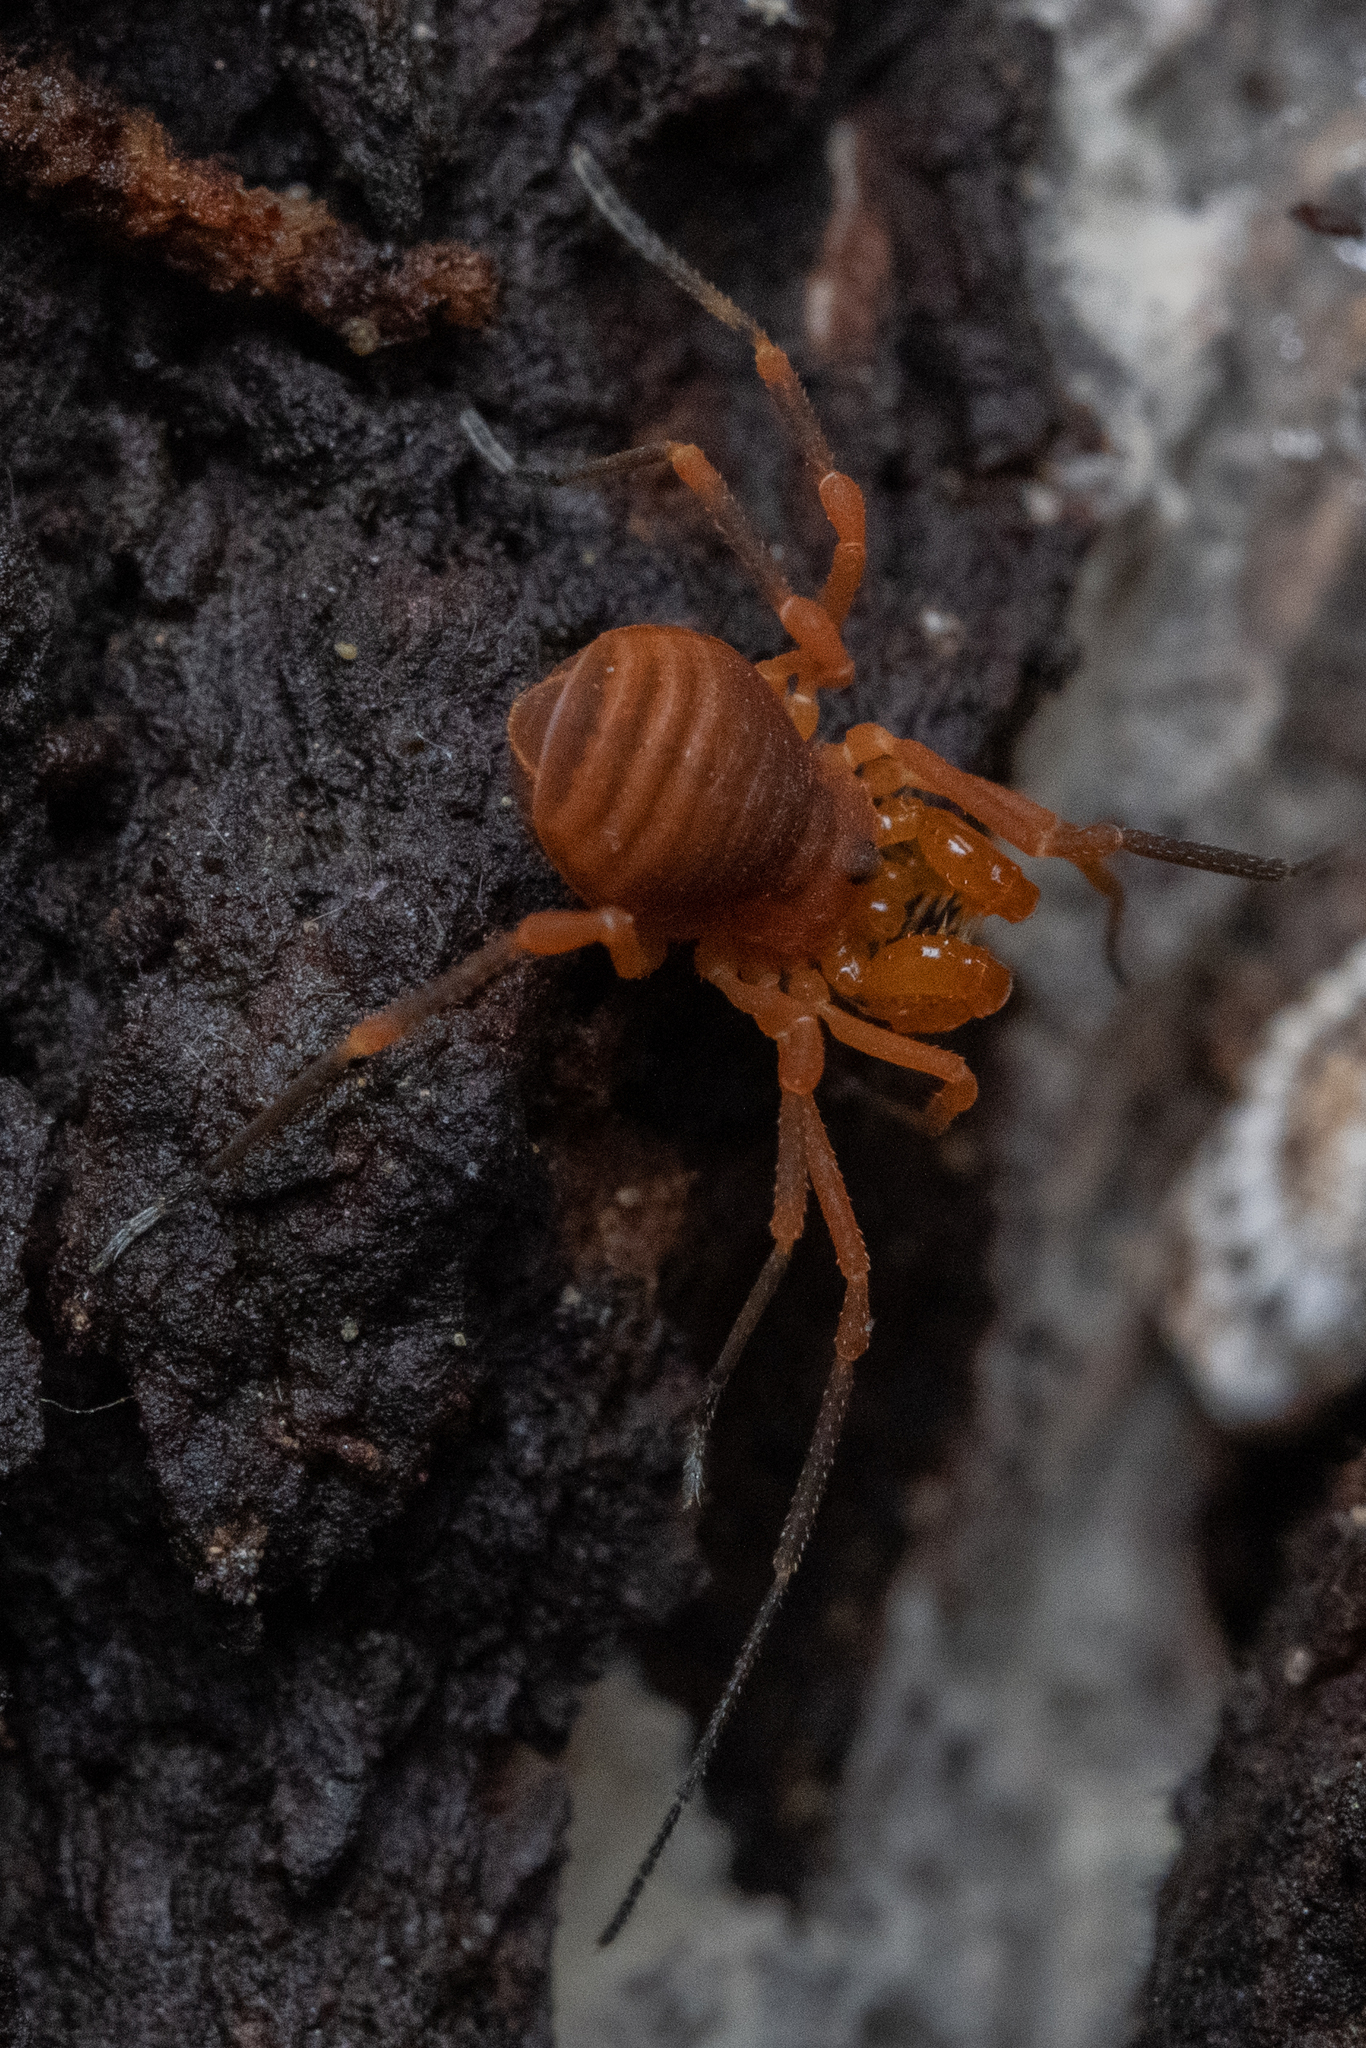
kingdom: Animalia
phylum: Arthropoda
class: Arachnida
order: Opiliones
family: Paranonychidae
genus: Sclerobunus
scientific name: Sclerobunus idahoensis
